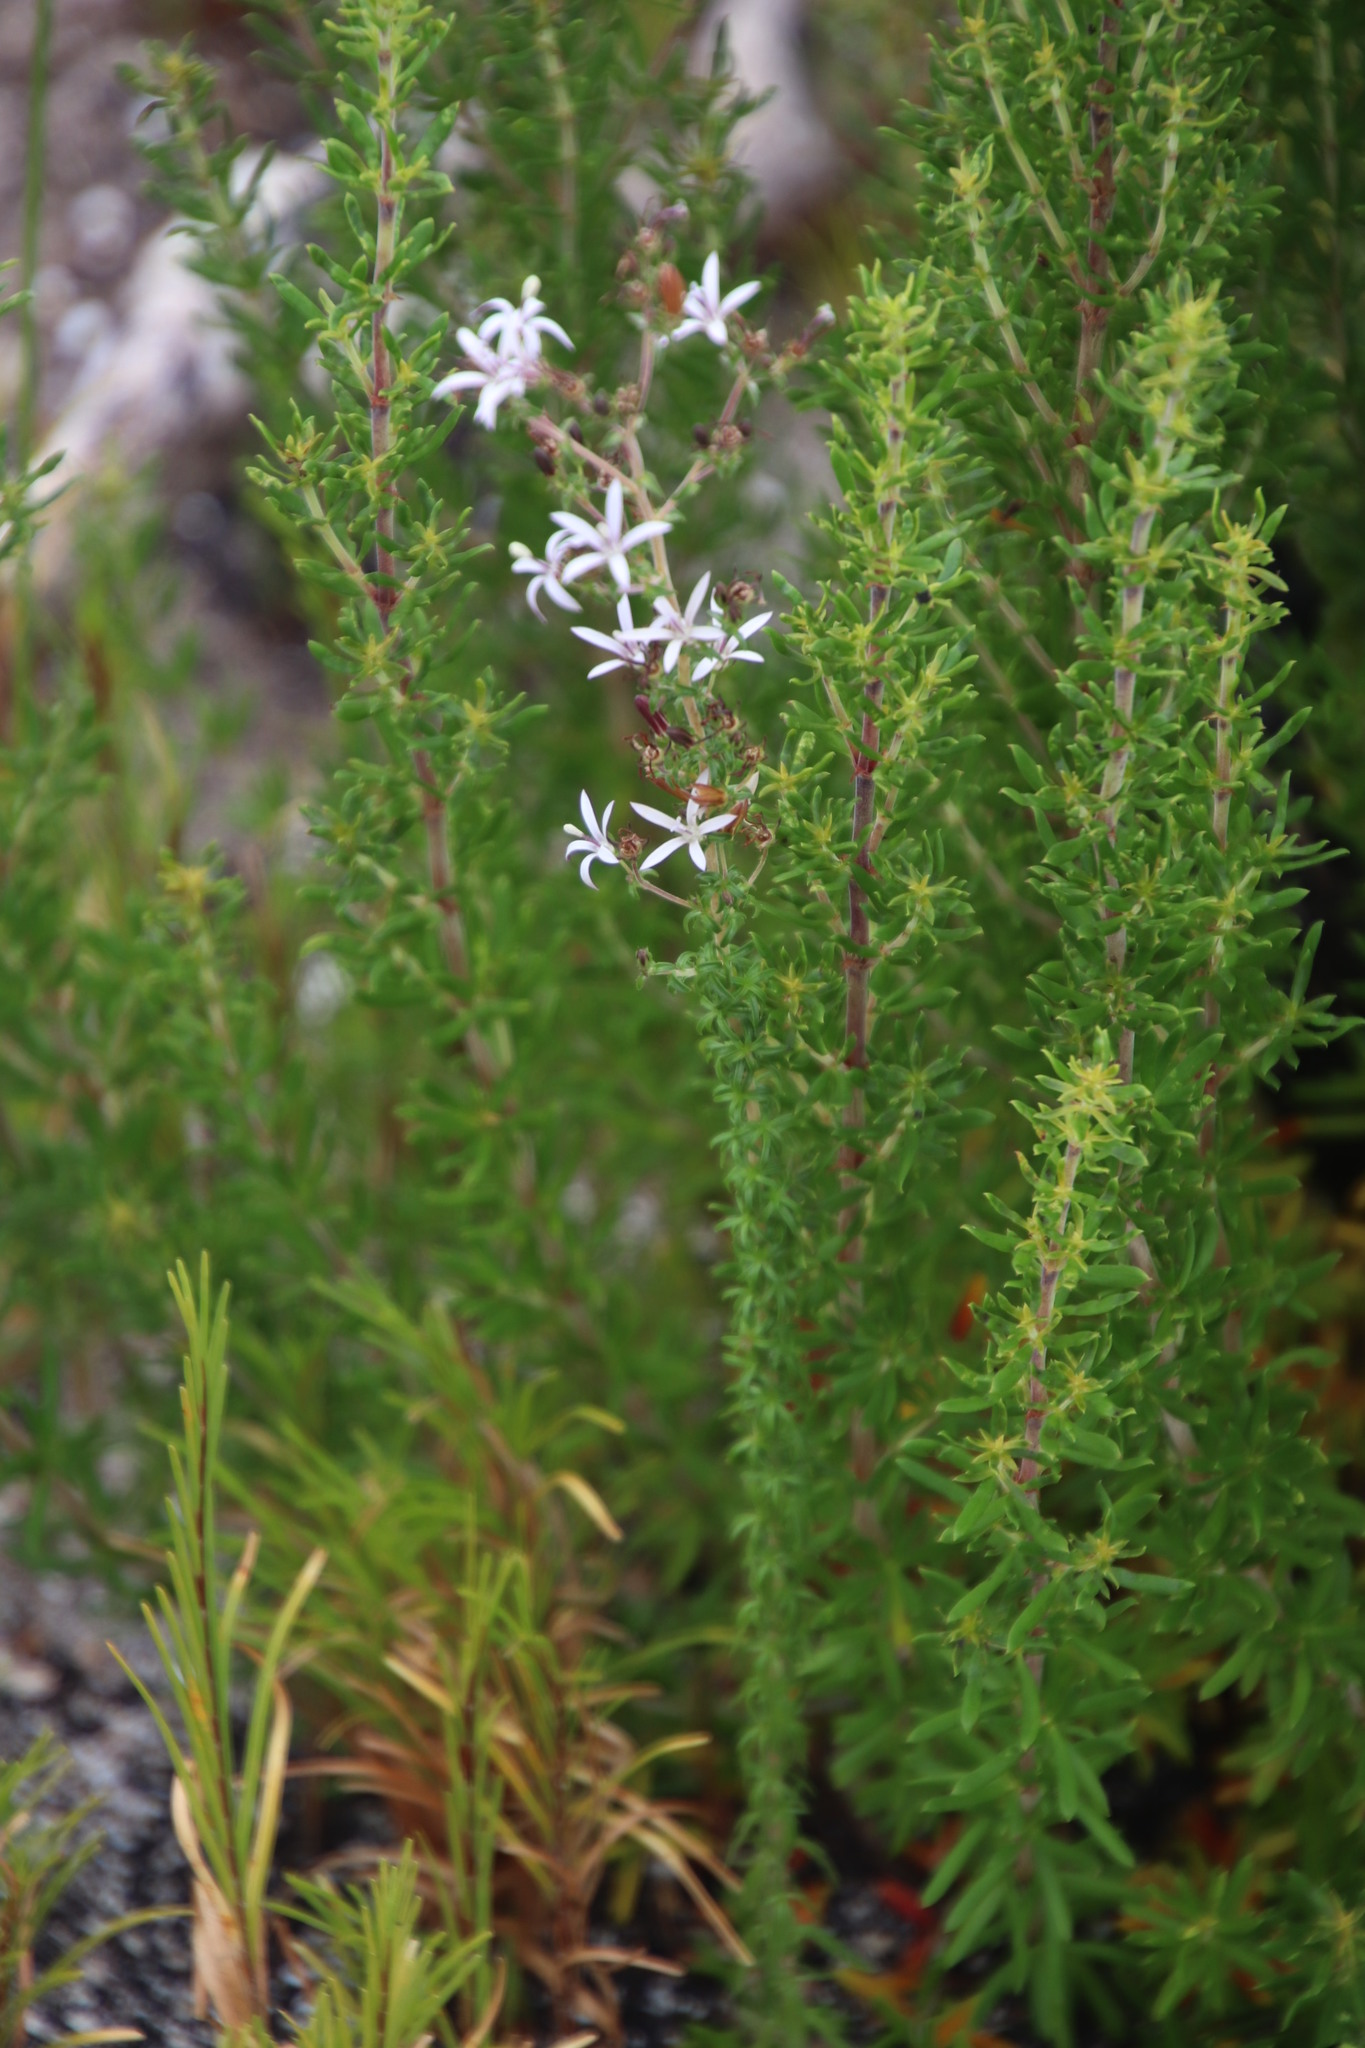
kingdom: Plantae
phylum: Tracheophyta
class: Magnoliopsida
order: Asterales
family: Campanulaceae
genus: Wahlenbergia
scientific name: Wahlenbergia tenella
